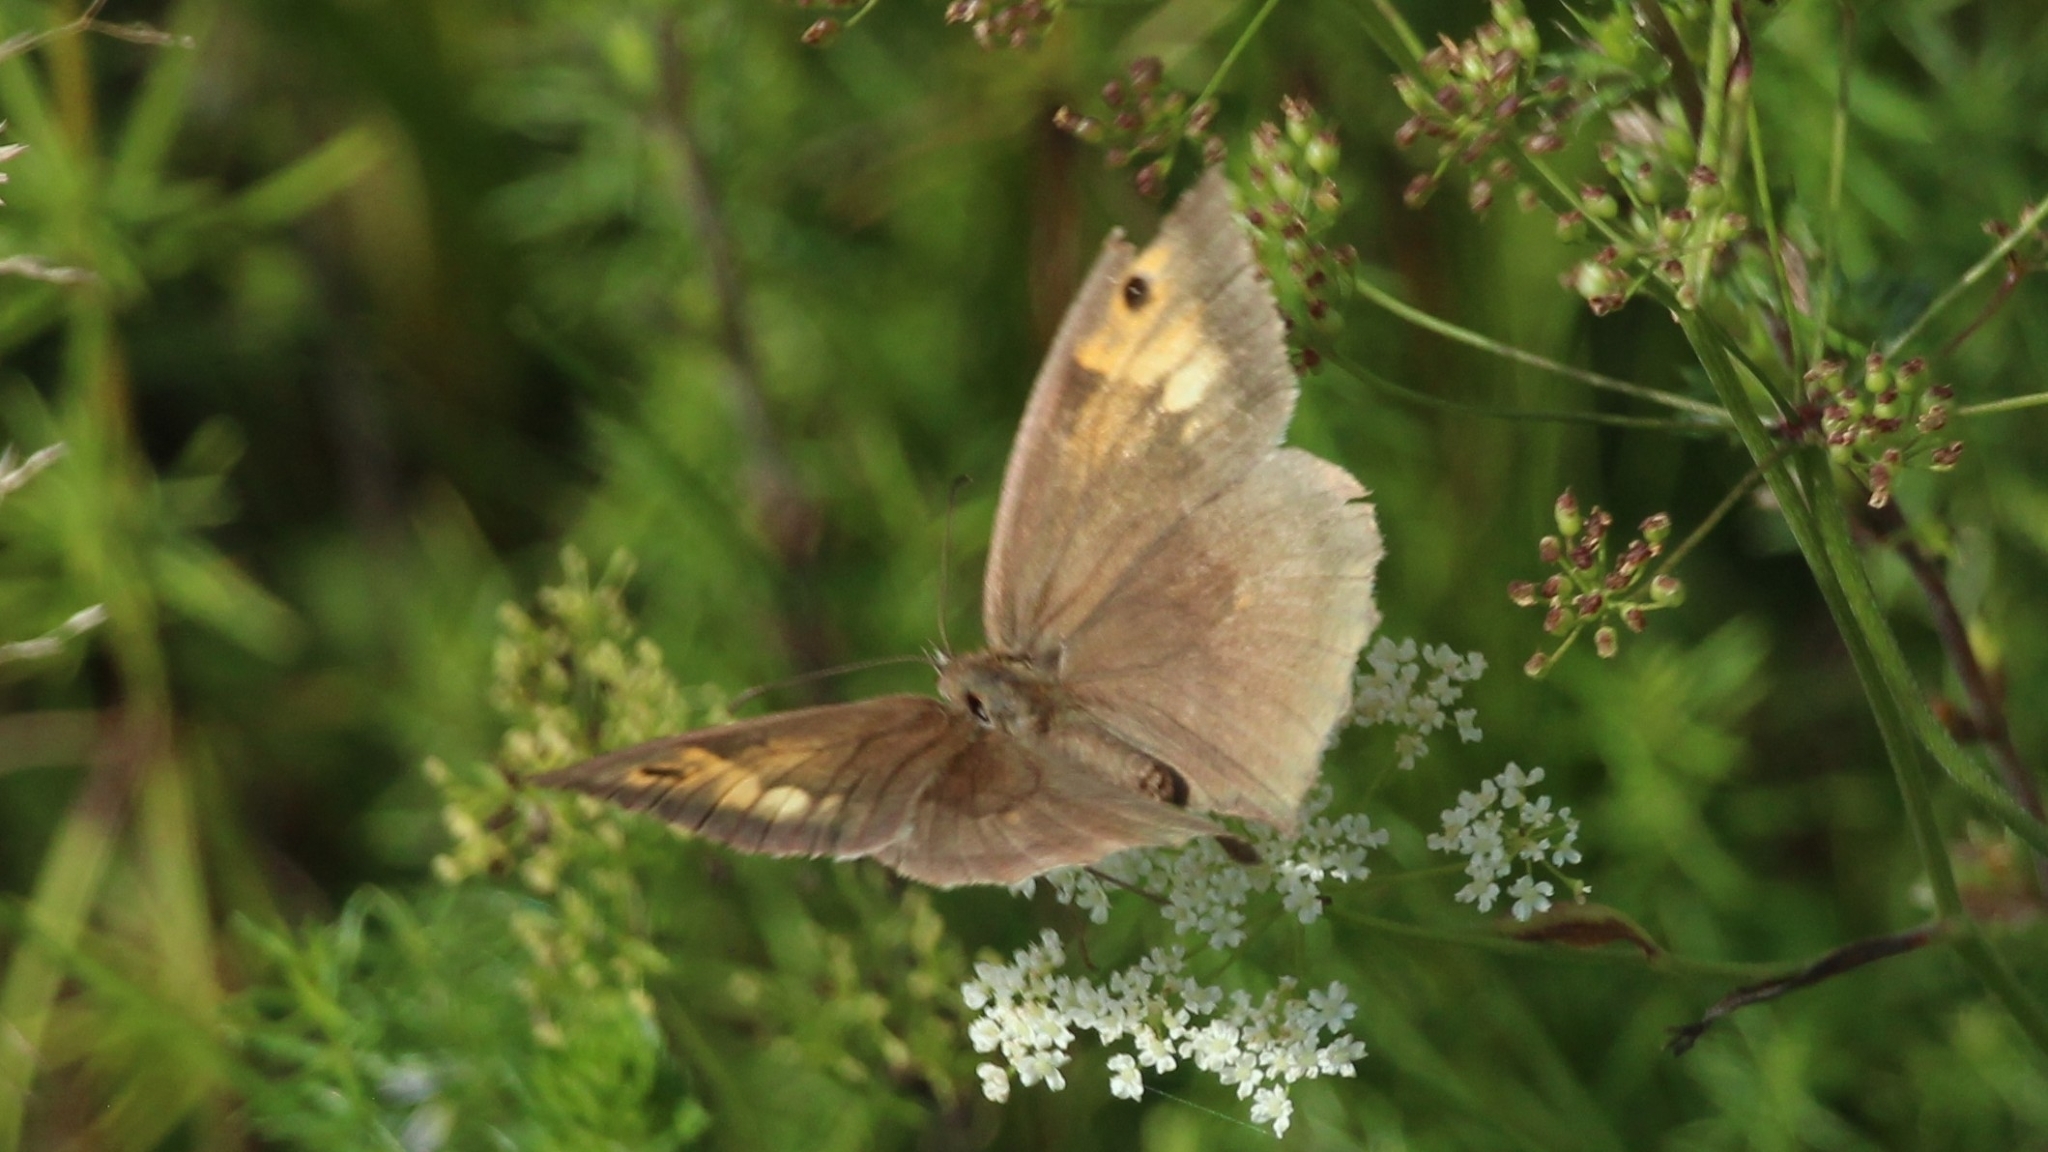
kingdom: Animalia
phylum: Arthropoda
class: Insecta
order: Lepidoptera
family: Nymphalidae
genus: Maniola
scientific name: Maniola jurtina
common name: Meadow brown
